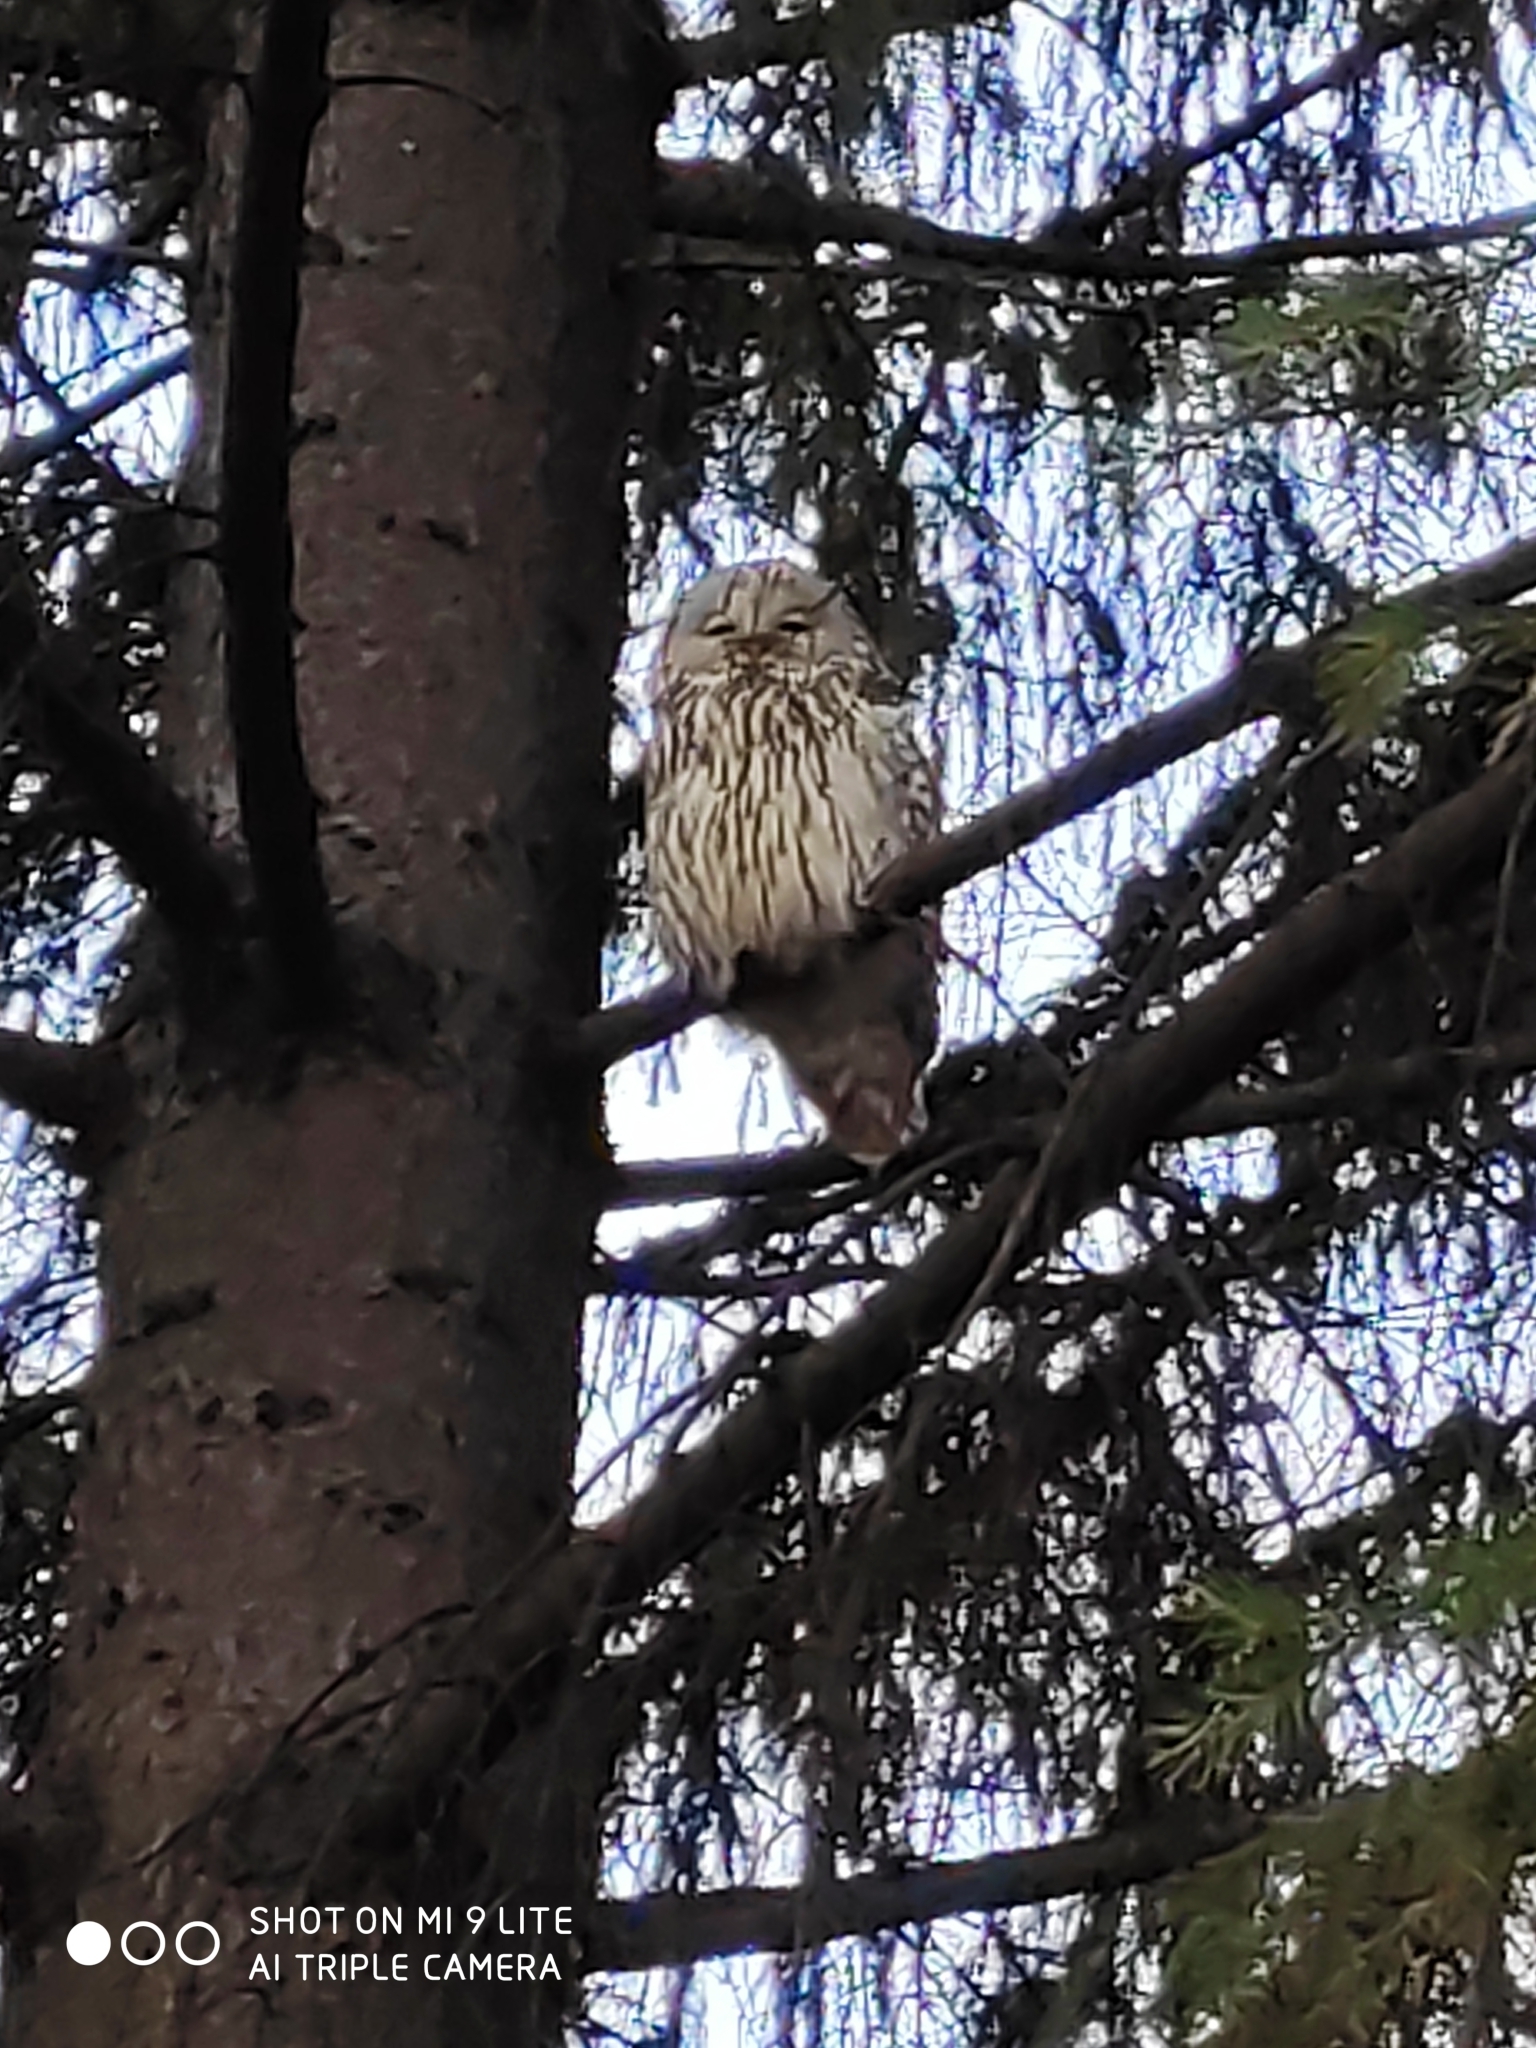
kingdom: Animalia
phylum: Chordata
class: Aves
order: Strigiformes
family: Strigidae
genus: Strix
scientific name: Strix uralensis
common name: Ural owl
